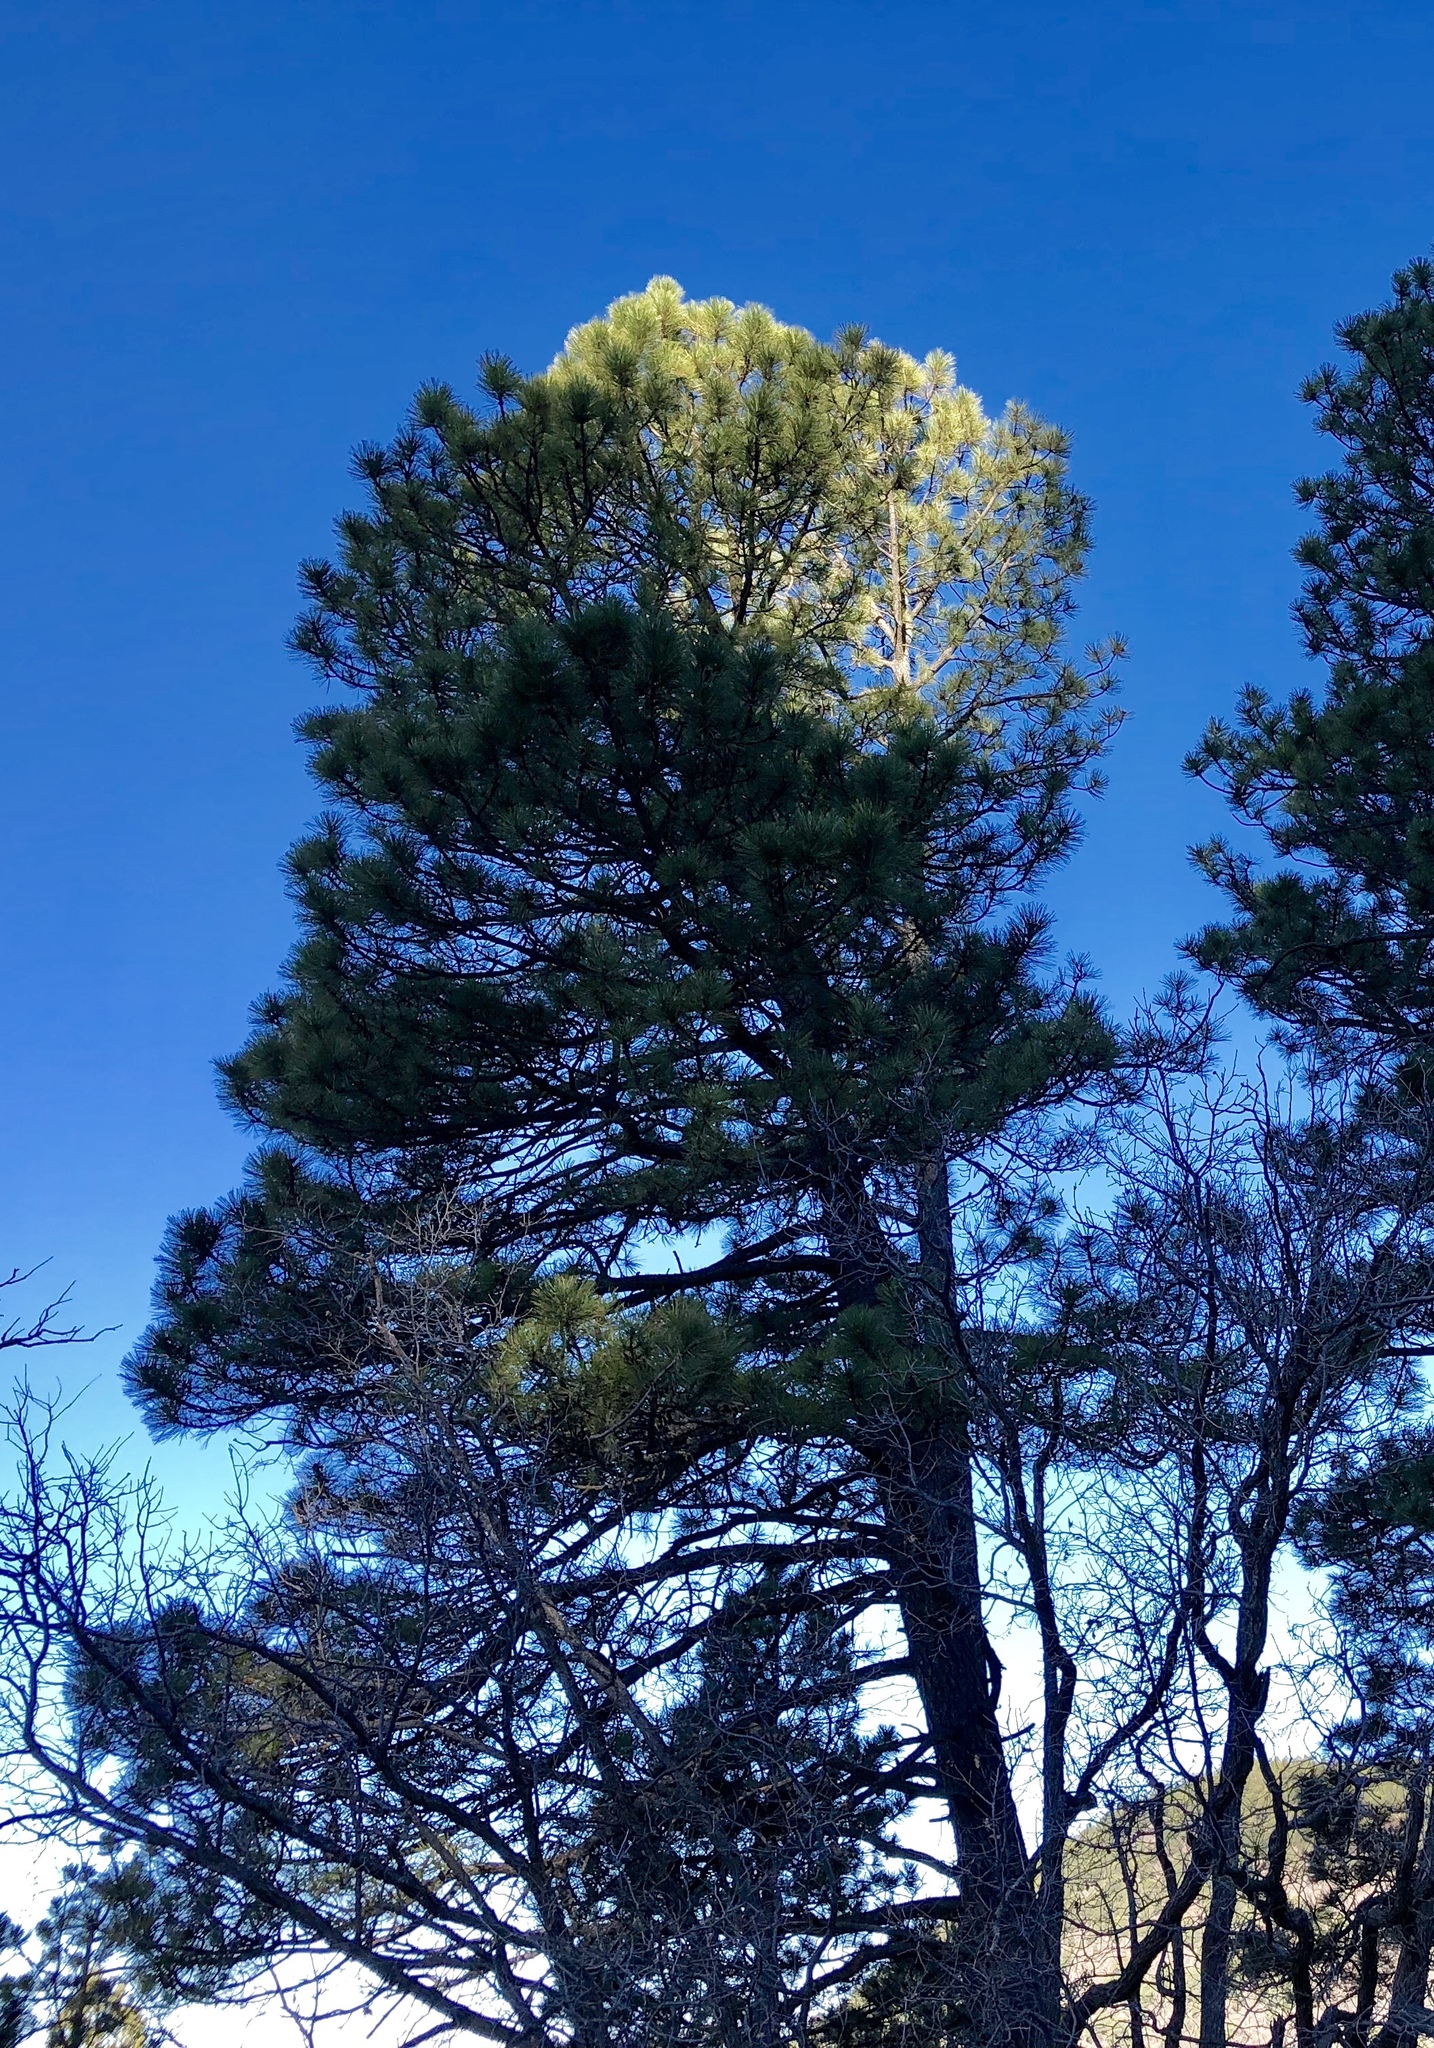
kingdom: Plantae
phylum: Tracheophyta
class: Pinopsida
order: Pinales
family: Pinaceae
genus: Pinus
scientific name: Pinus ponderosa
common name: Western yellow-pine
